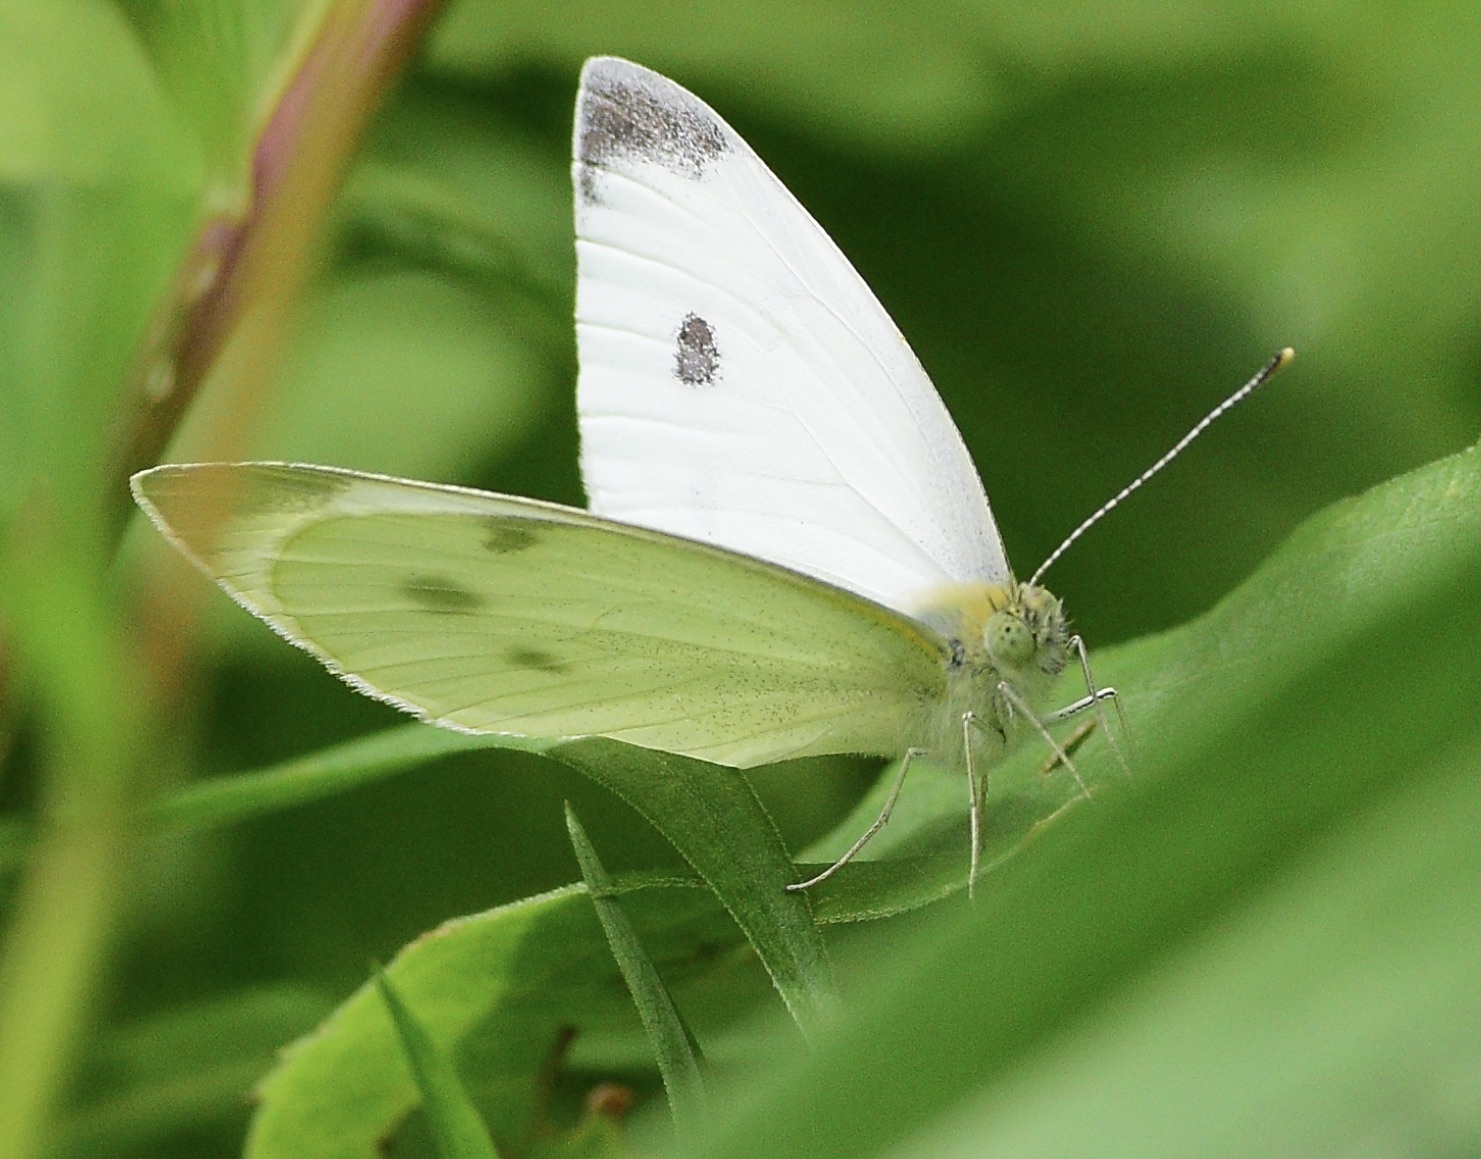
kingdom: Animalia
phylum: Arthropoda
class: Insecta
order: Lepidoptera
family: Pieridae
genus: Pieris
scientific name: Pieris rapae
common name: Small white
